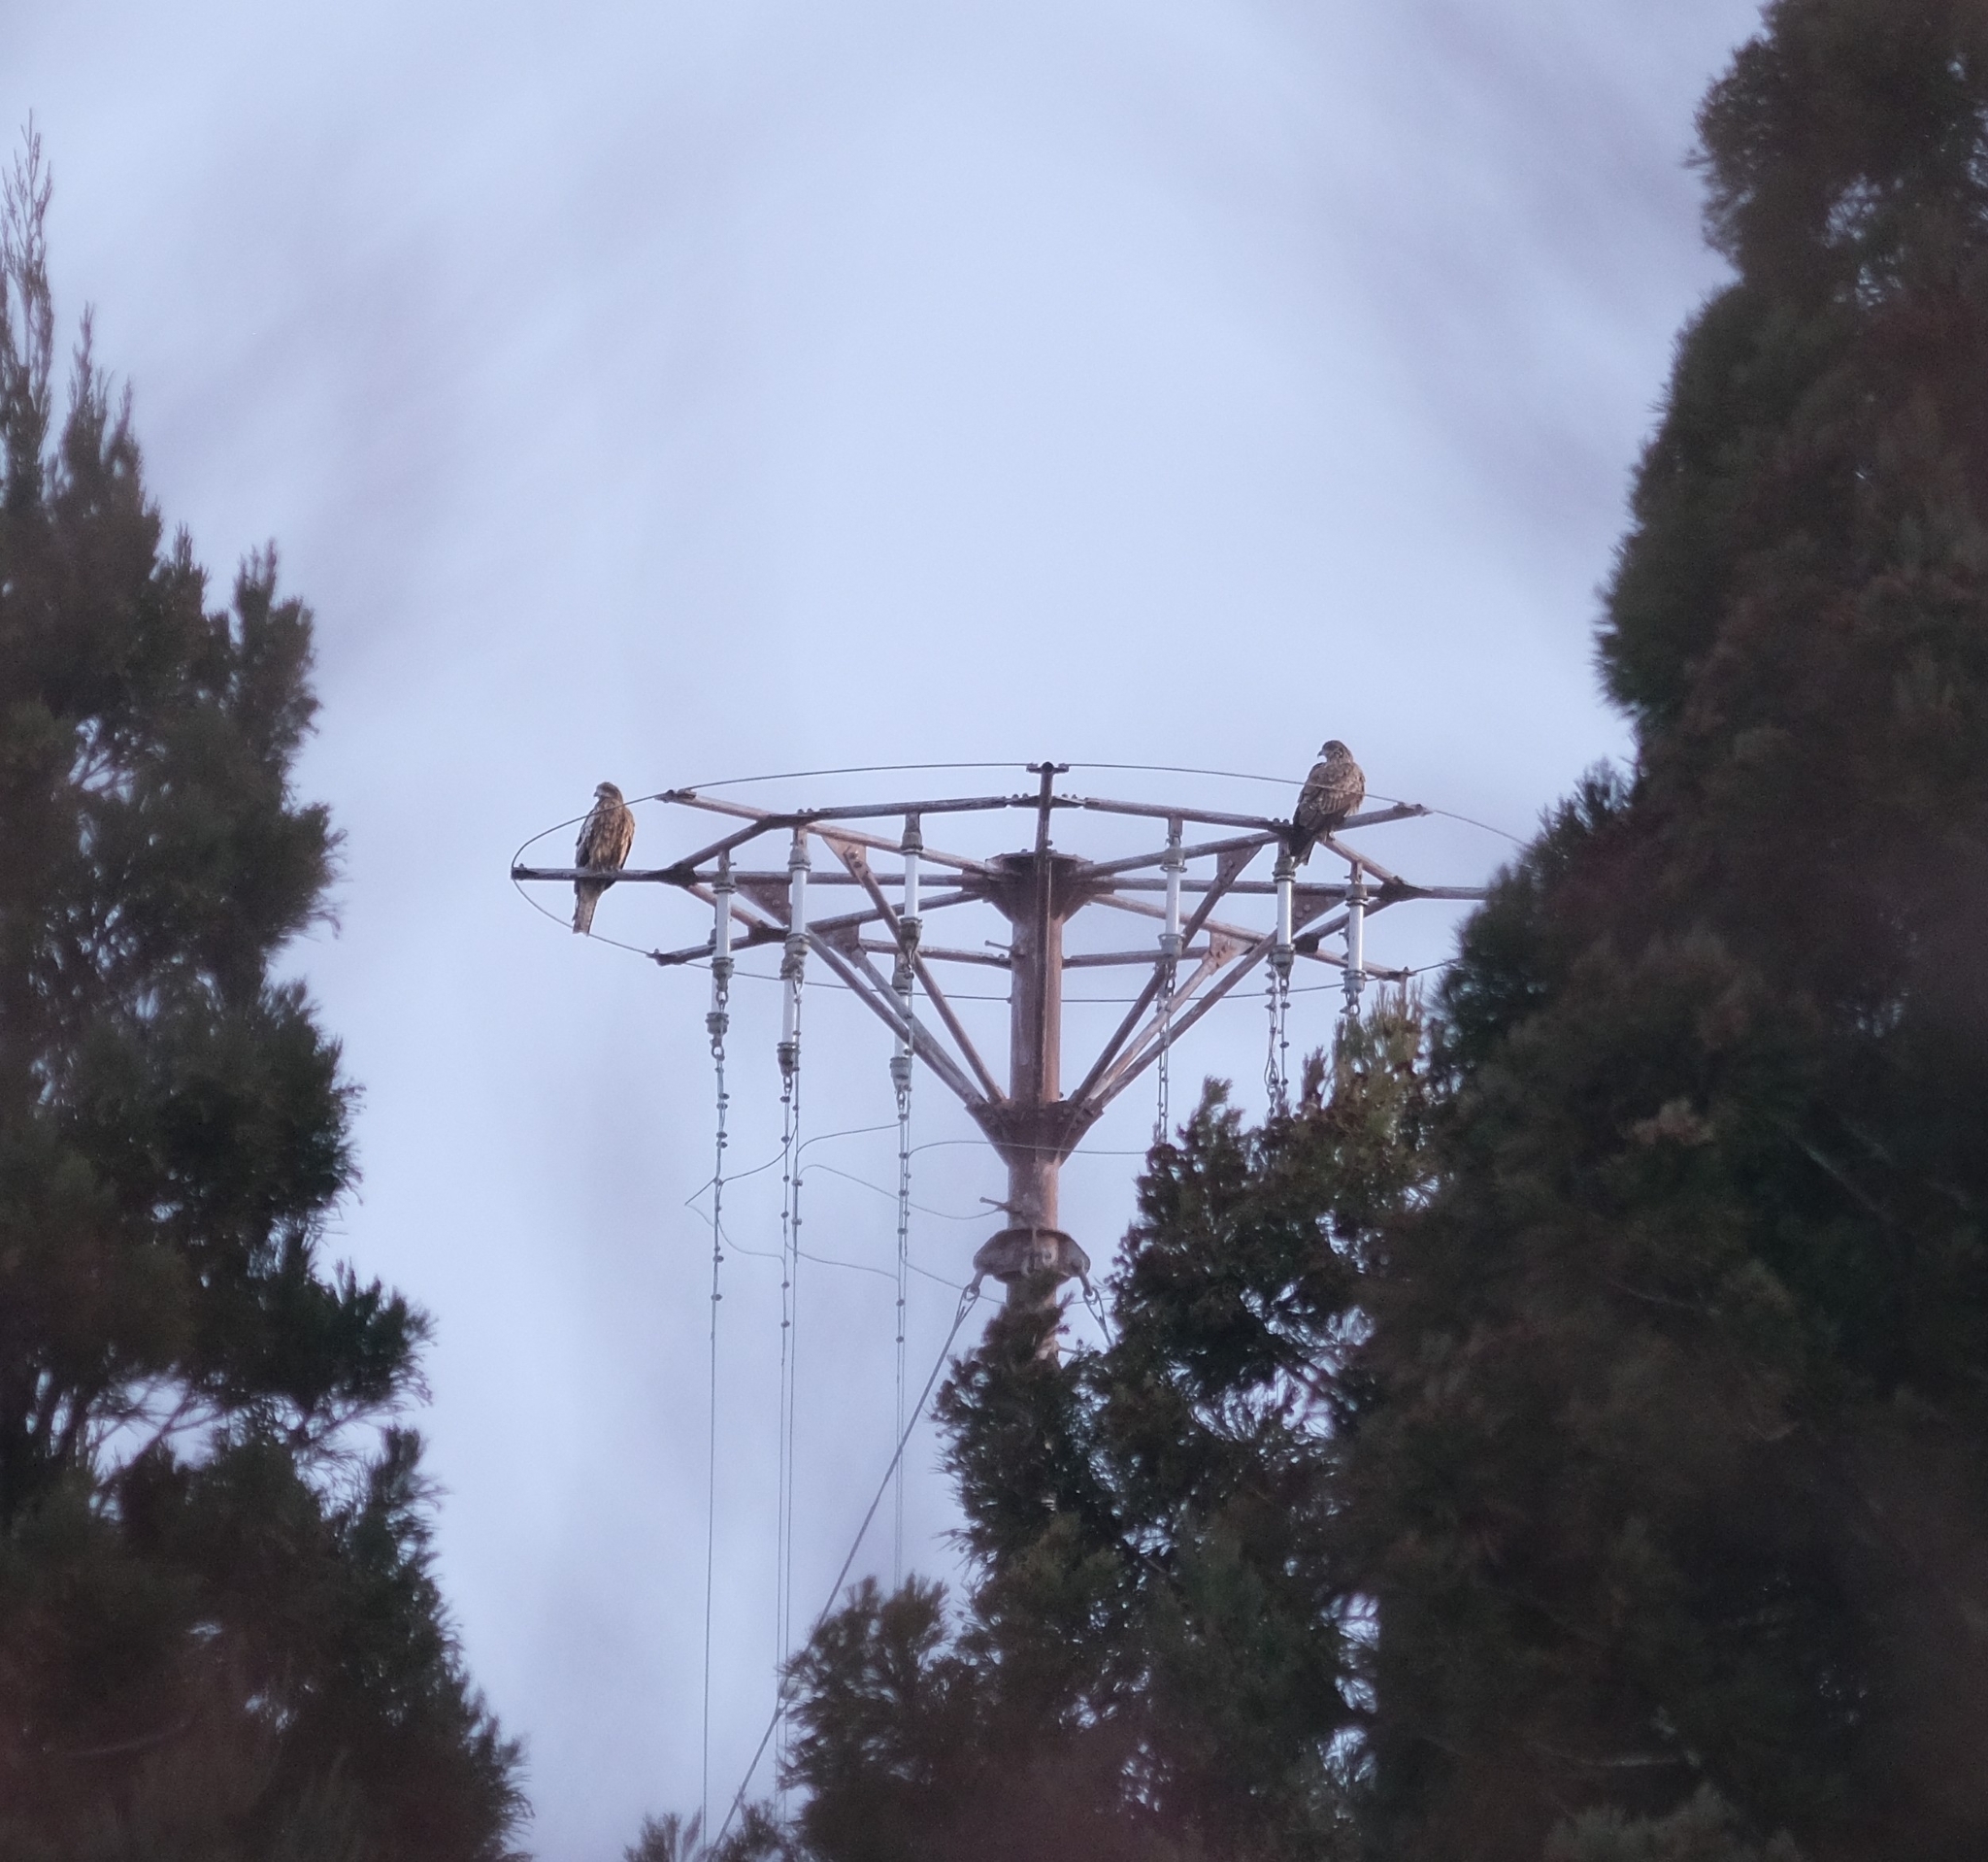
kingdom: Animalia
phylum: Chordata
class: Aves
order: Accipitriformes
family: Accipitridae
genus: Milvus
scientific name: Milvus migrans
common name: Black kite
